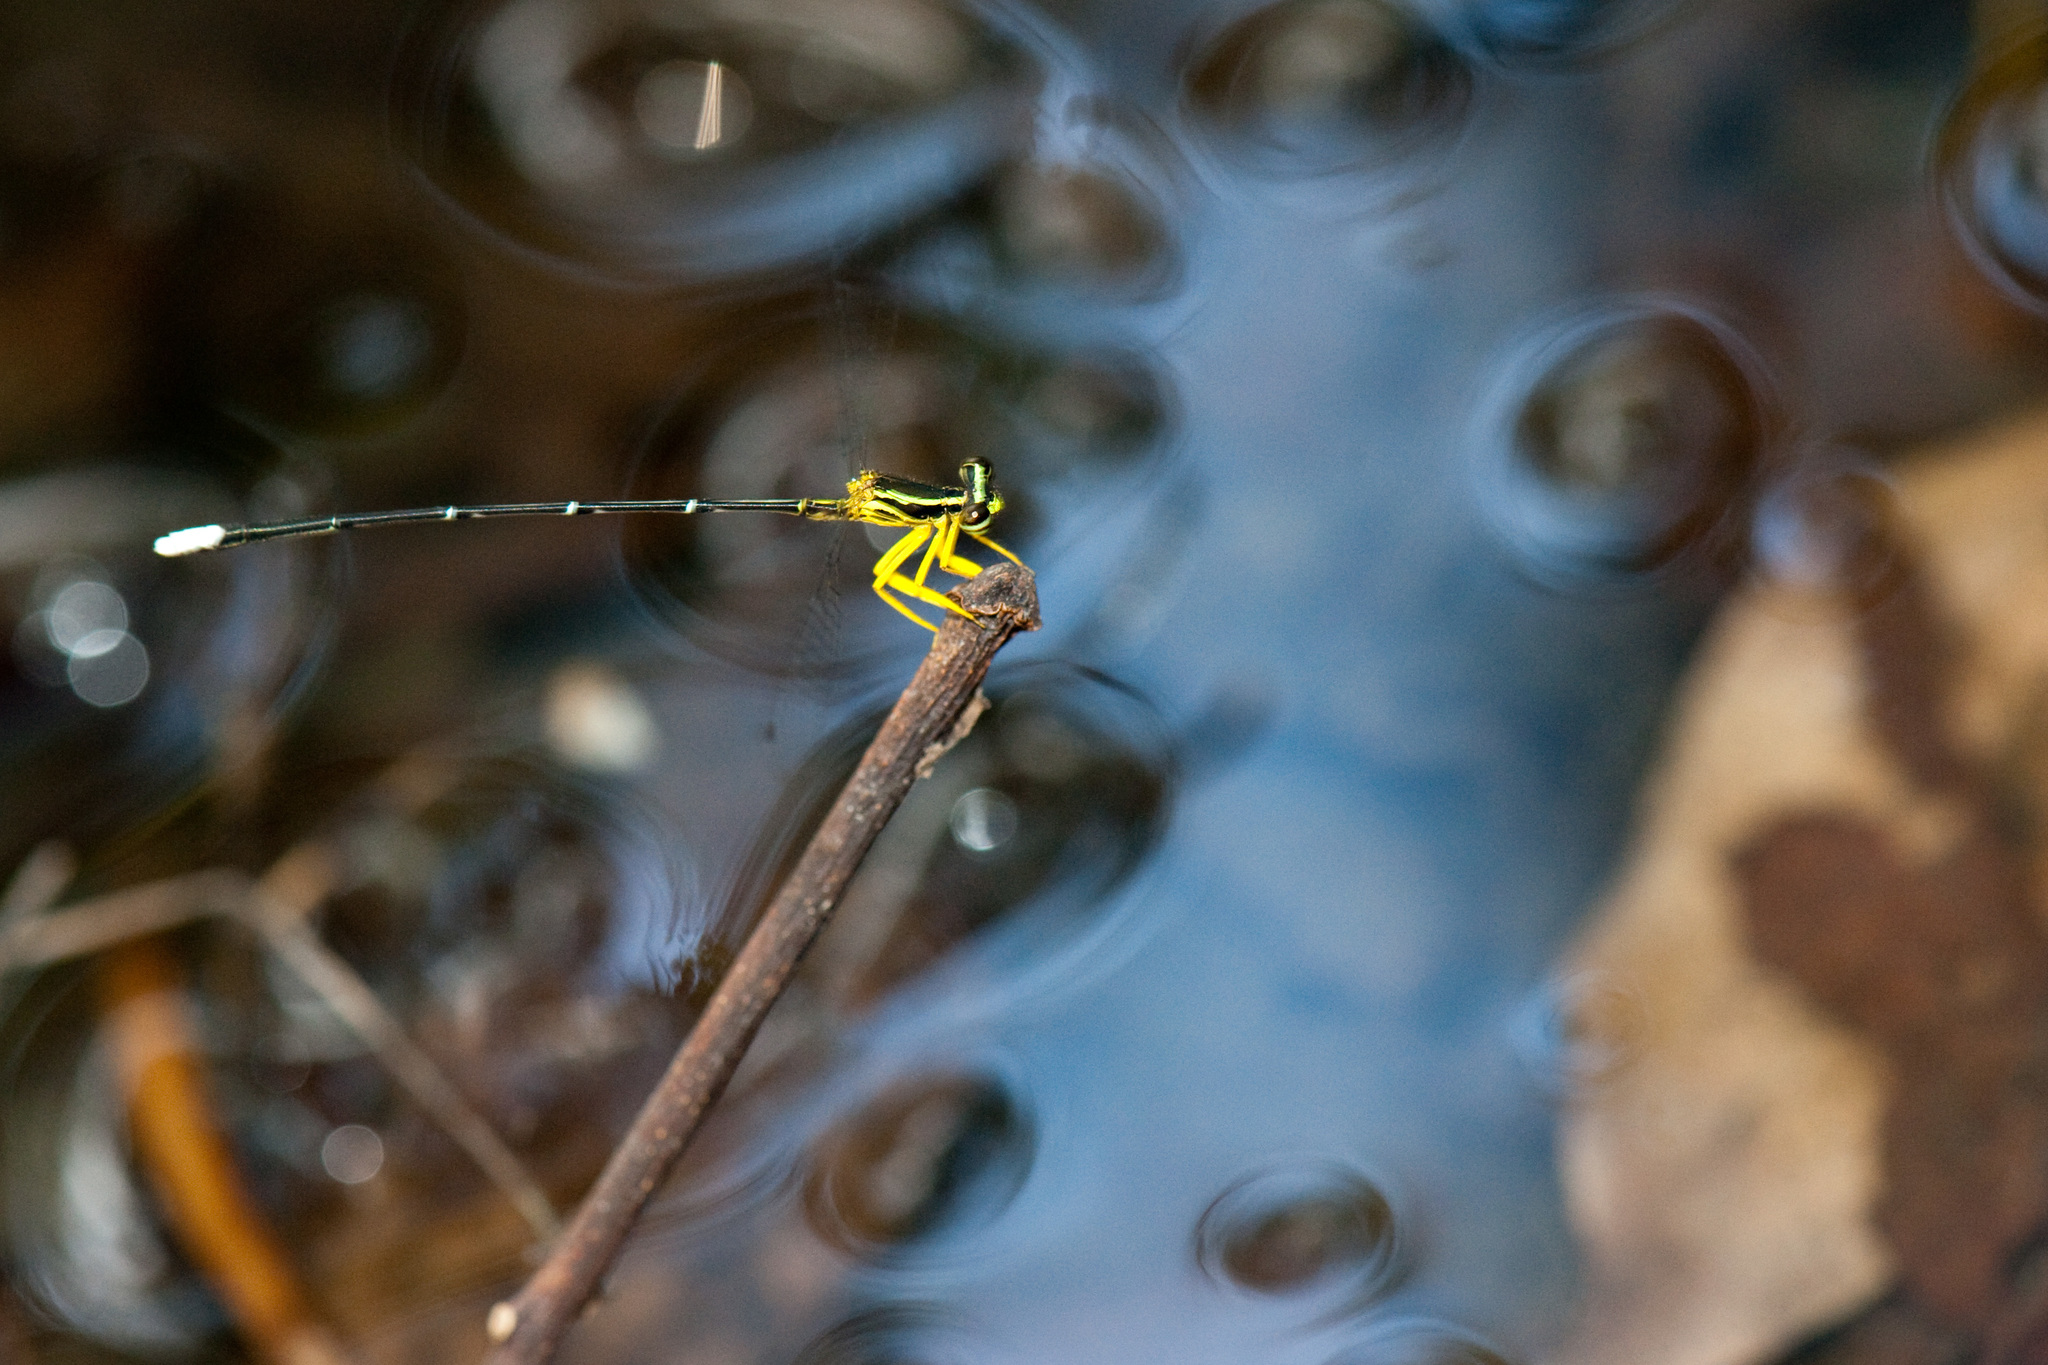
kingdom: Animalia
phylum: Arthropoda
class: Insecta
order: Odonata
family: Platycnemididae
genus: Copera
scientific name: Copera marginipes
